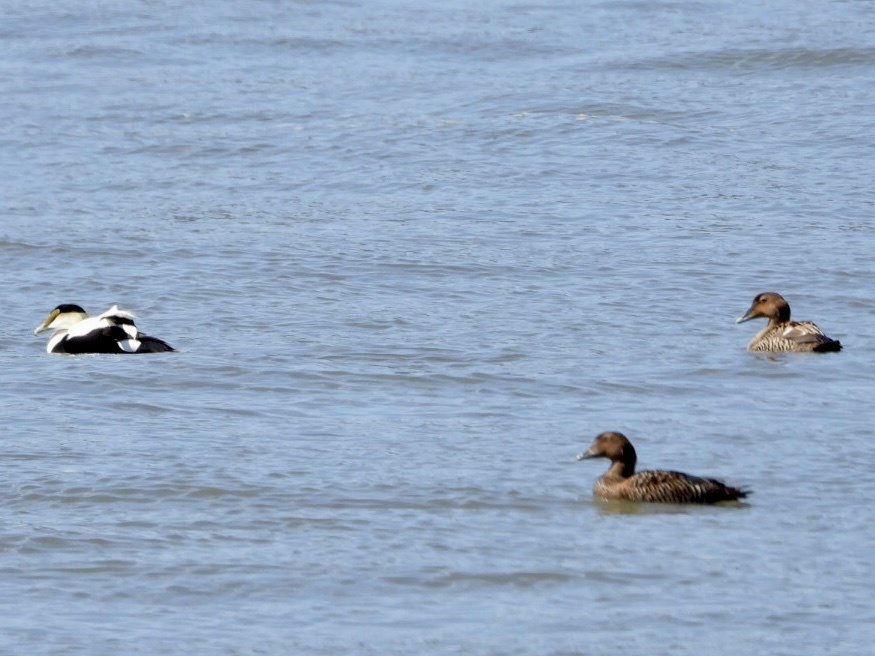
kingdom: Animalia
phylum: Chordata
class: Aves
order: Anseriformes
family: Anatidae
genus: Somateria
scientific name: Somateria mollissima
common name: Common eider
